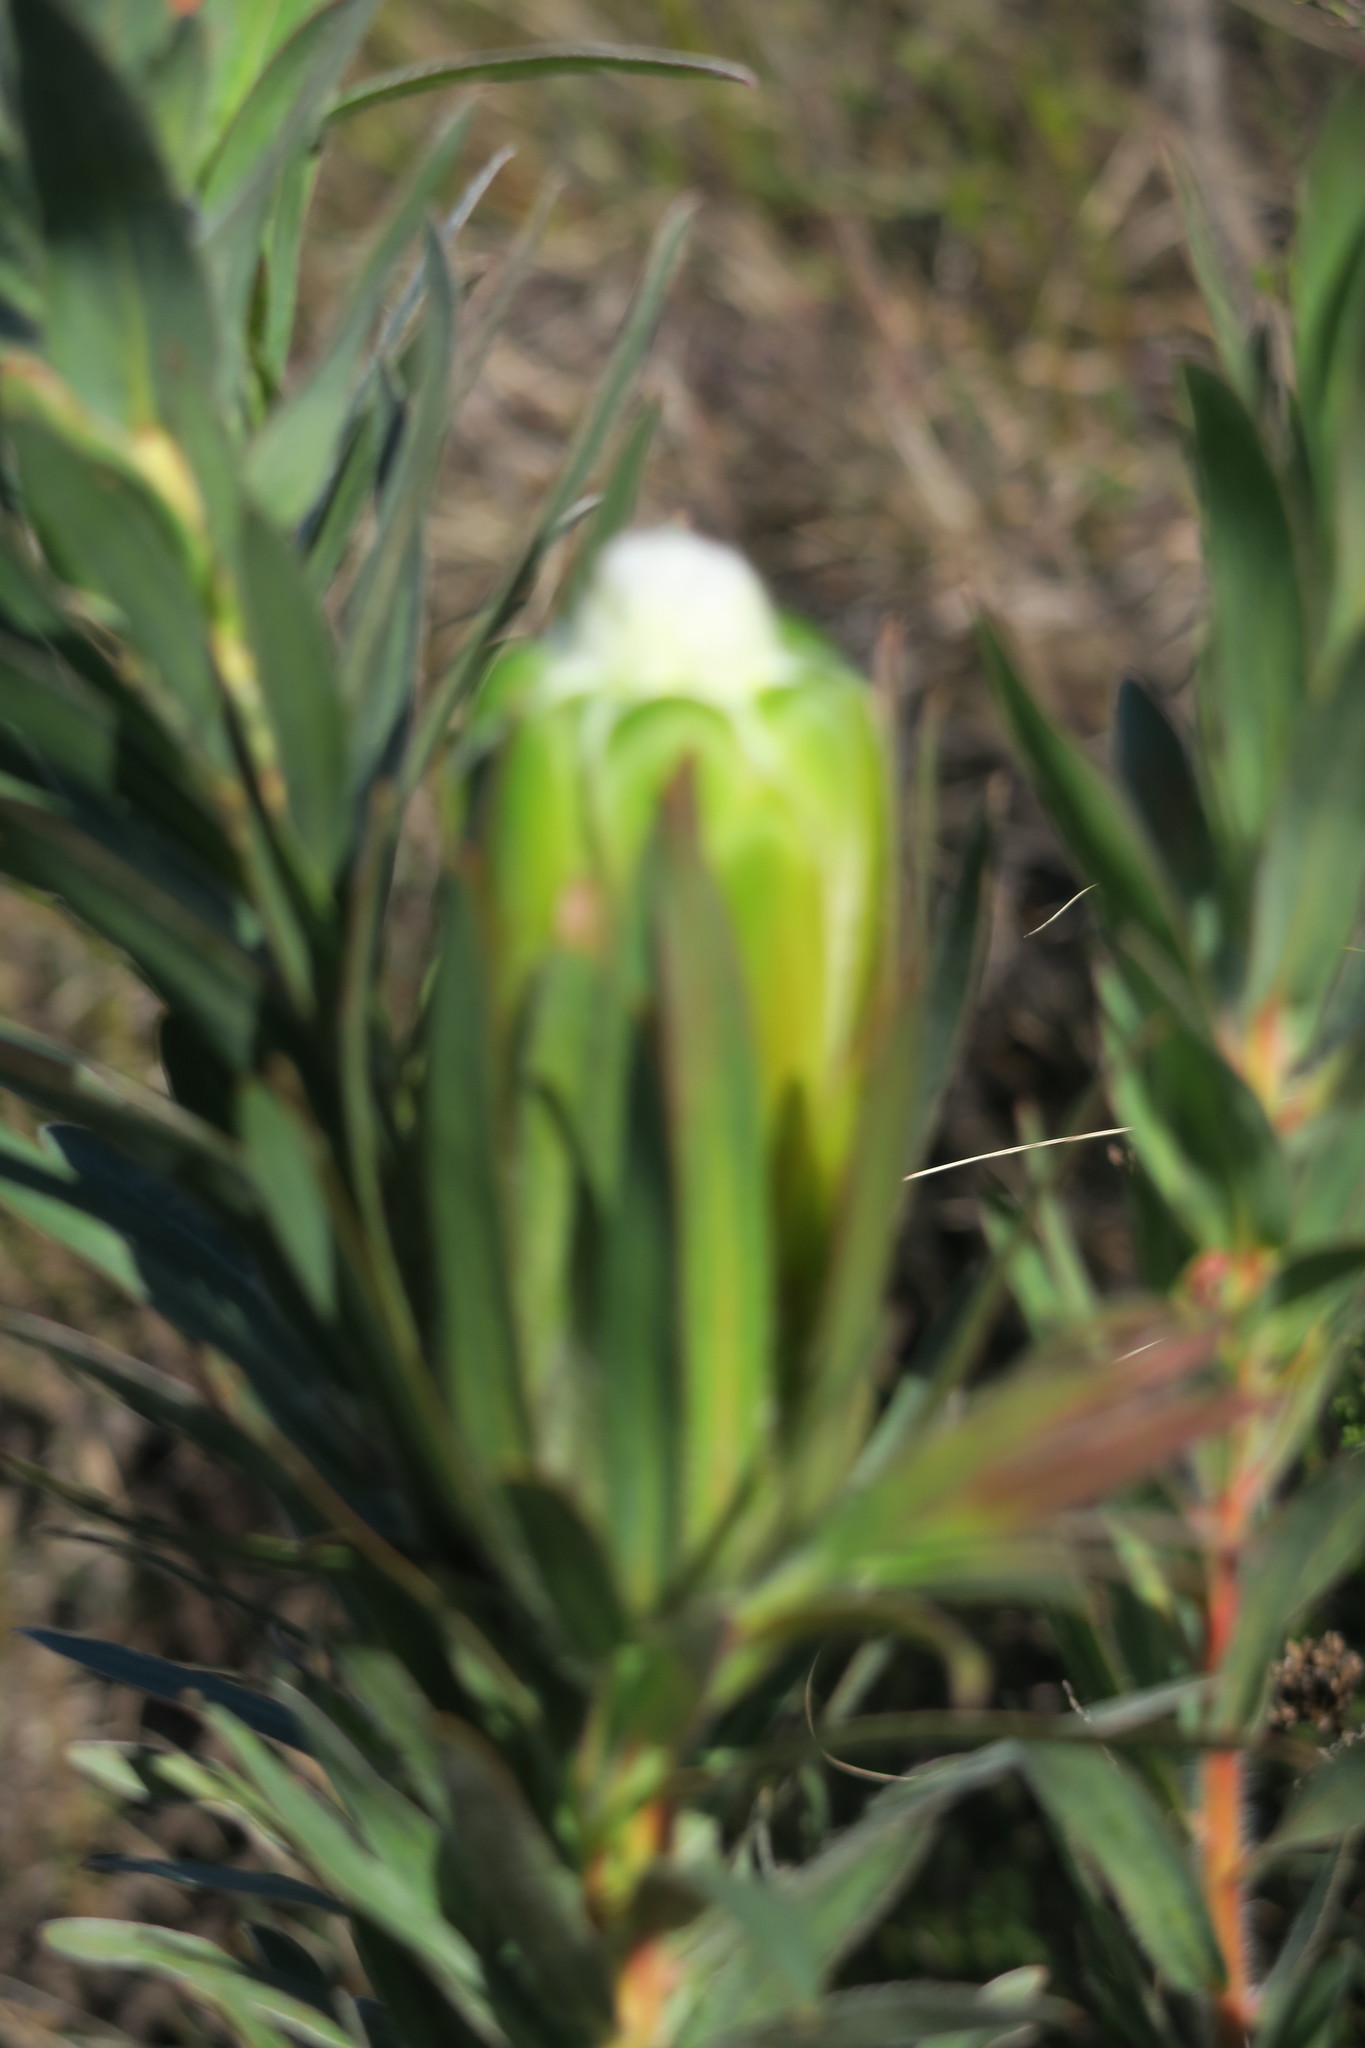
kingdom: Plantae
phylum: Tracheophyta
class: Magnoliopsida
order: Proteales
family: Proteaceae
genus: Protea
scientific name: Protea coronata
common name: Green sugarbush
